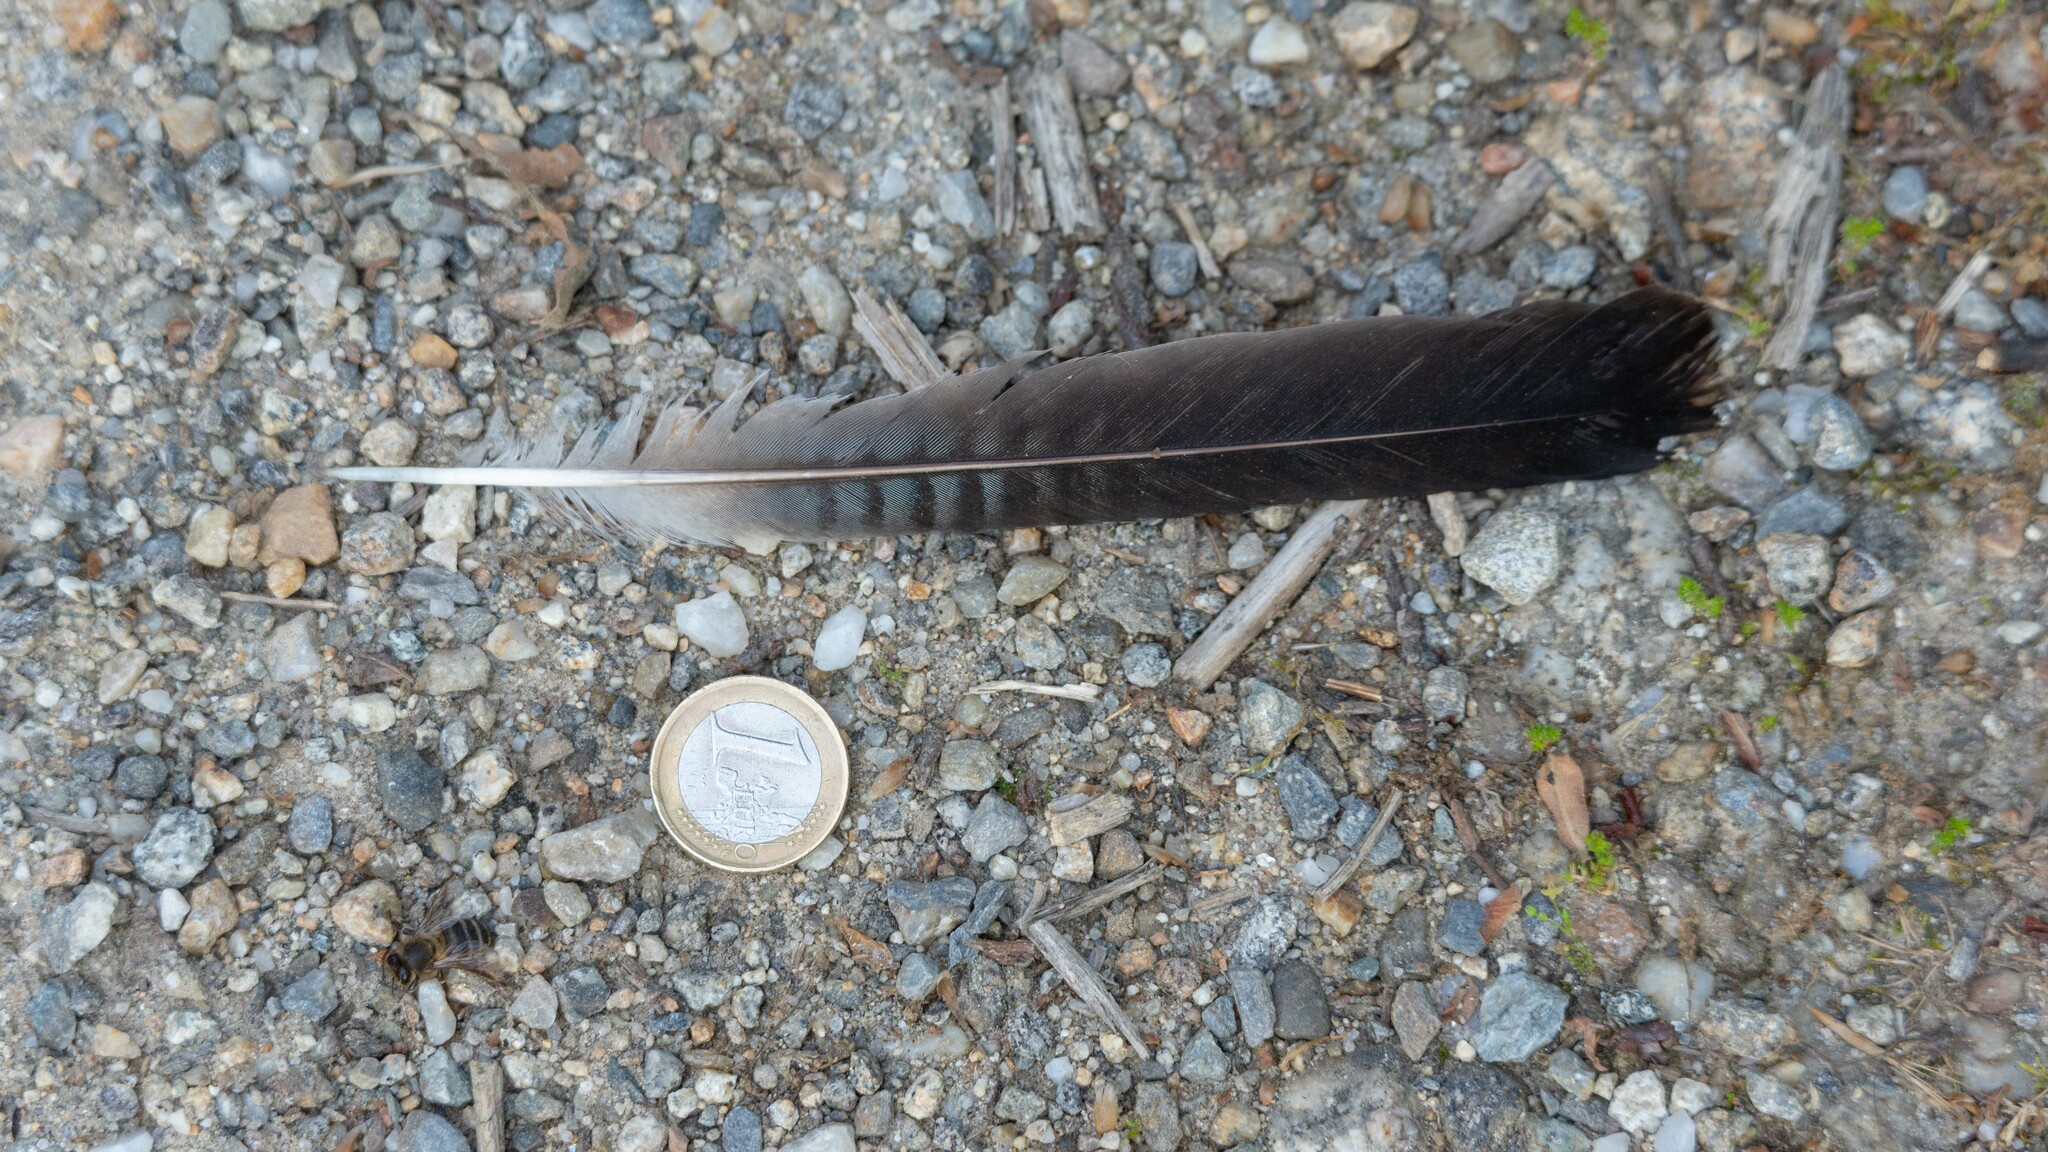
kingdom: Animalia
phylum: Chordata
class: Aves
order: Passeriformes
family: Corvidae
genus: Garrulus
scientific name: Garrulus glandarius
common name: Eurasian jay
